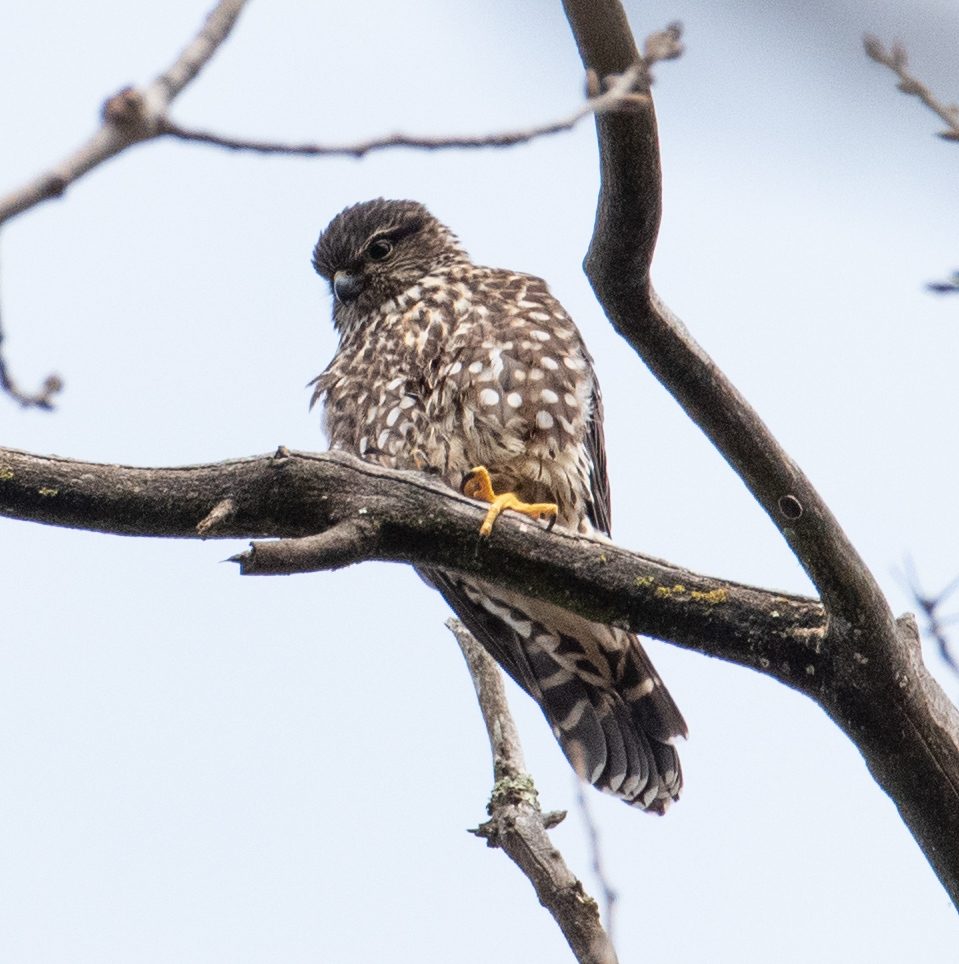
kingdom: Animalia
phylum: Chordata
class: Aves
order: Falconiformes
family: Falconidae
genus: Falco
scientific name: Falco columbarius
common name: Merlin
